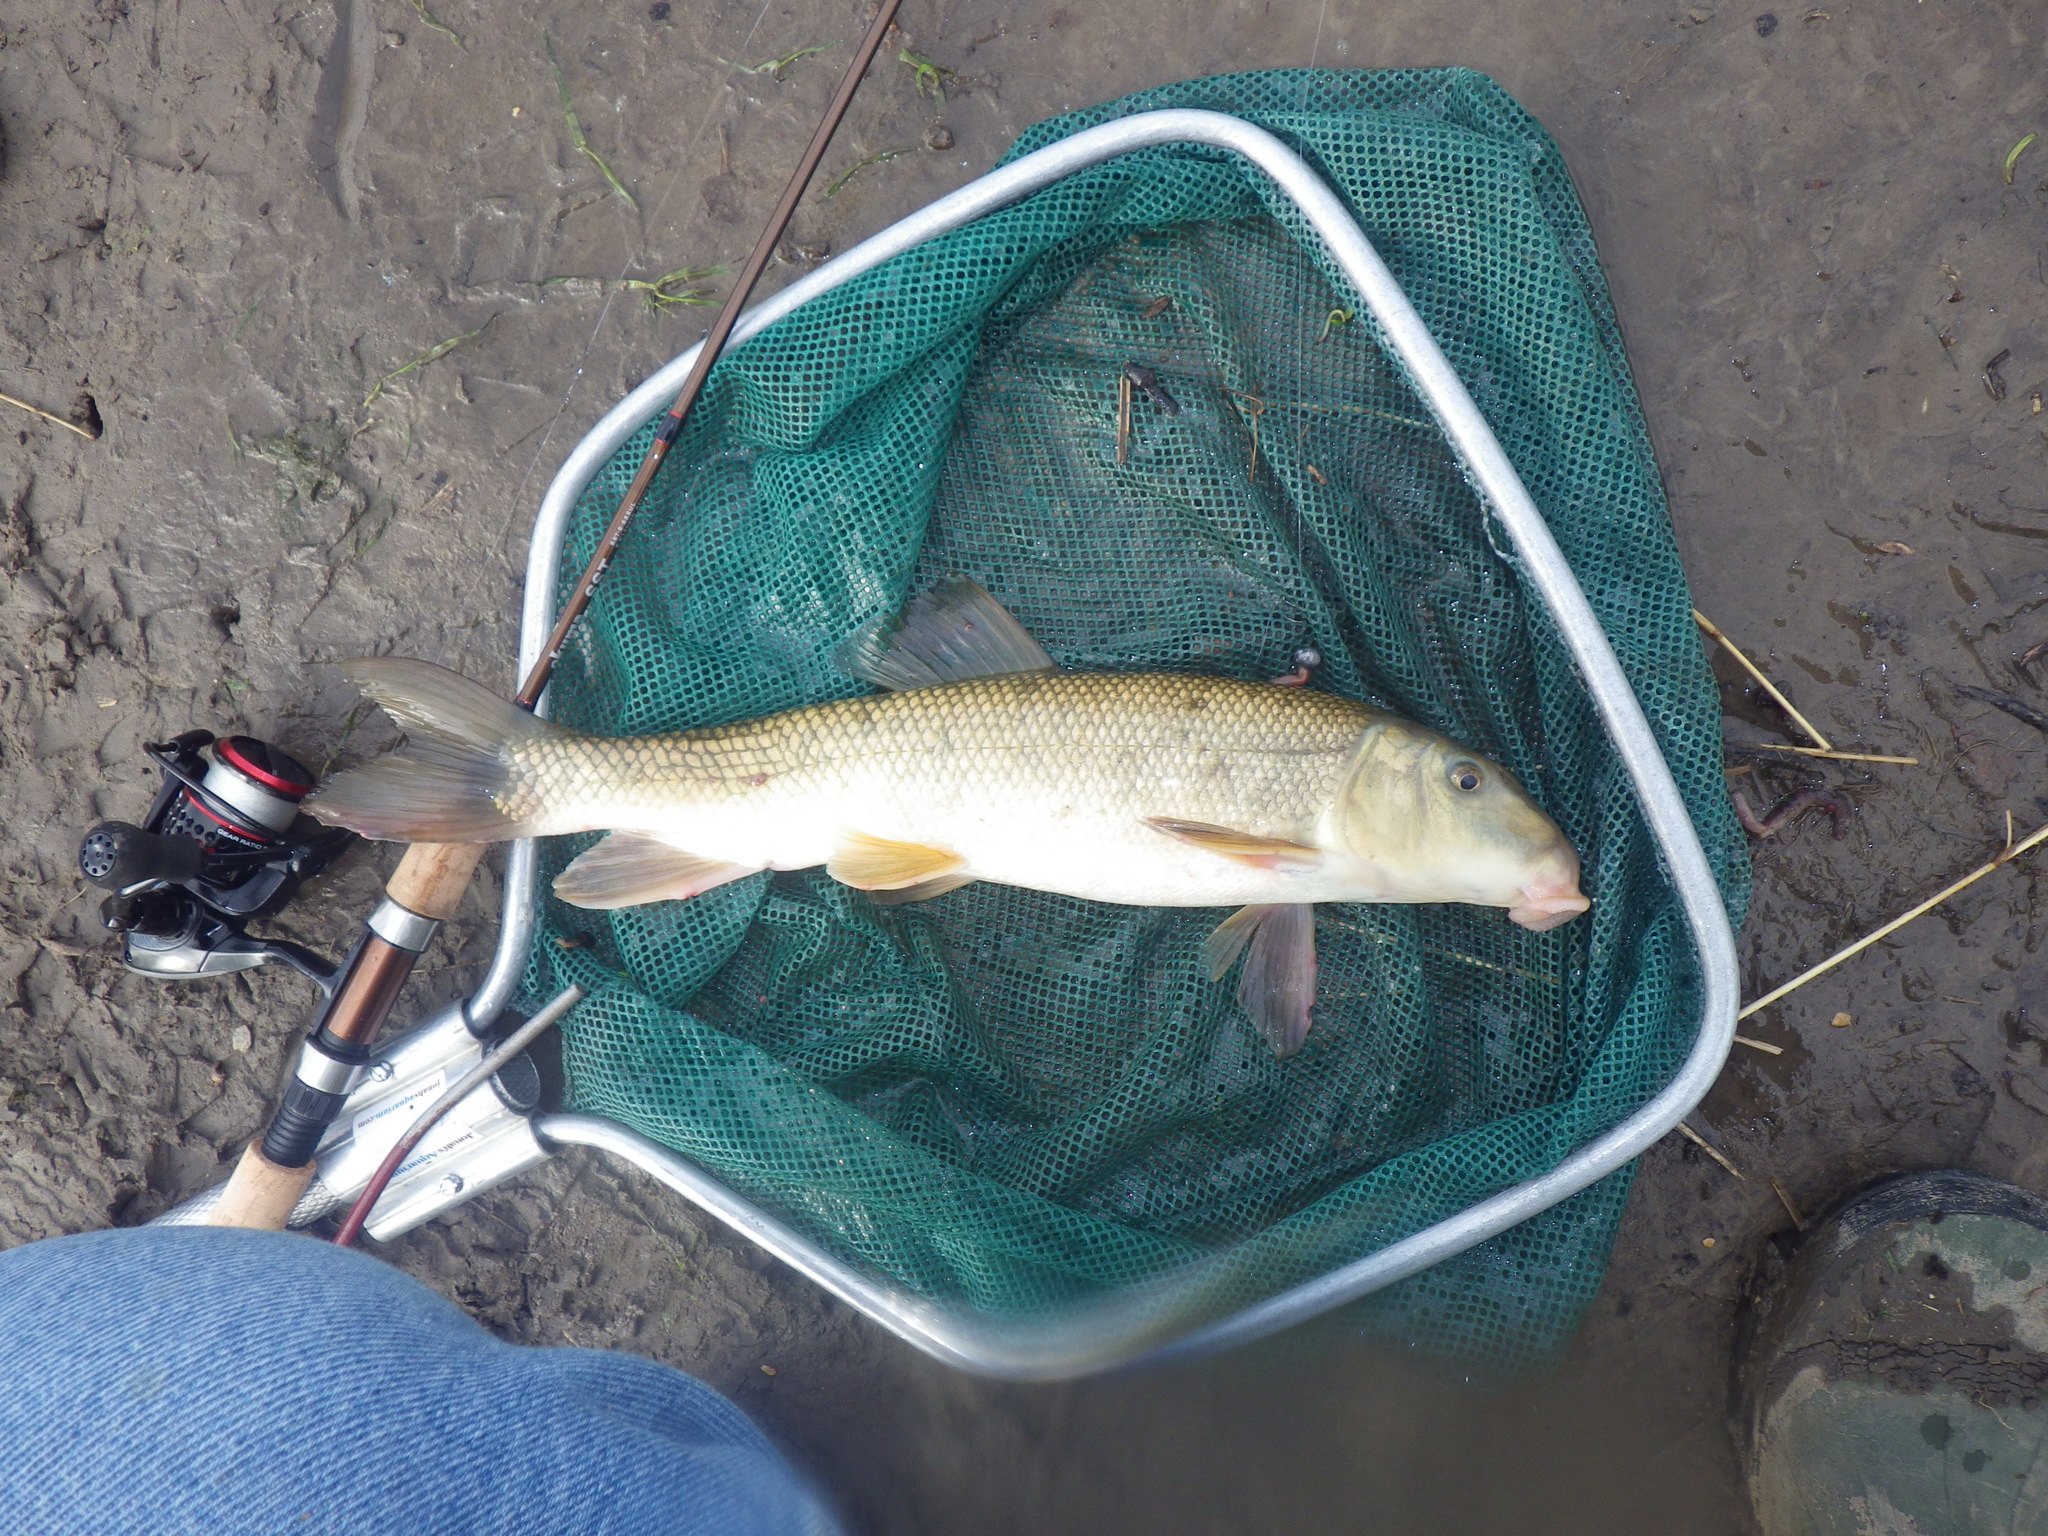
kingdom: Animalia
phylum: Chordata
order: Cypriniformes
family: Catostomidae
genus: Catostomus
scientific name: Catostomus commersonii
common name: White sucker
